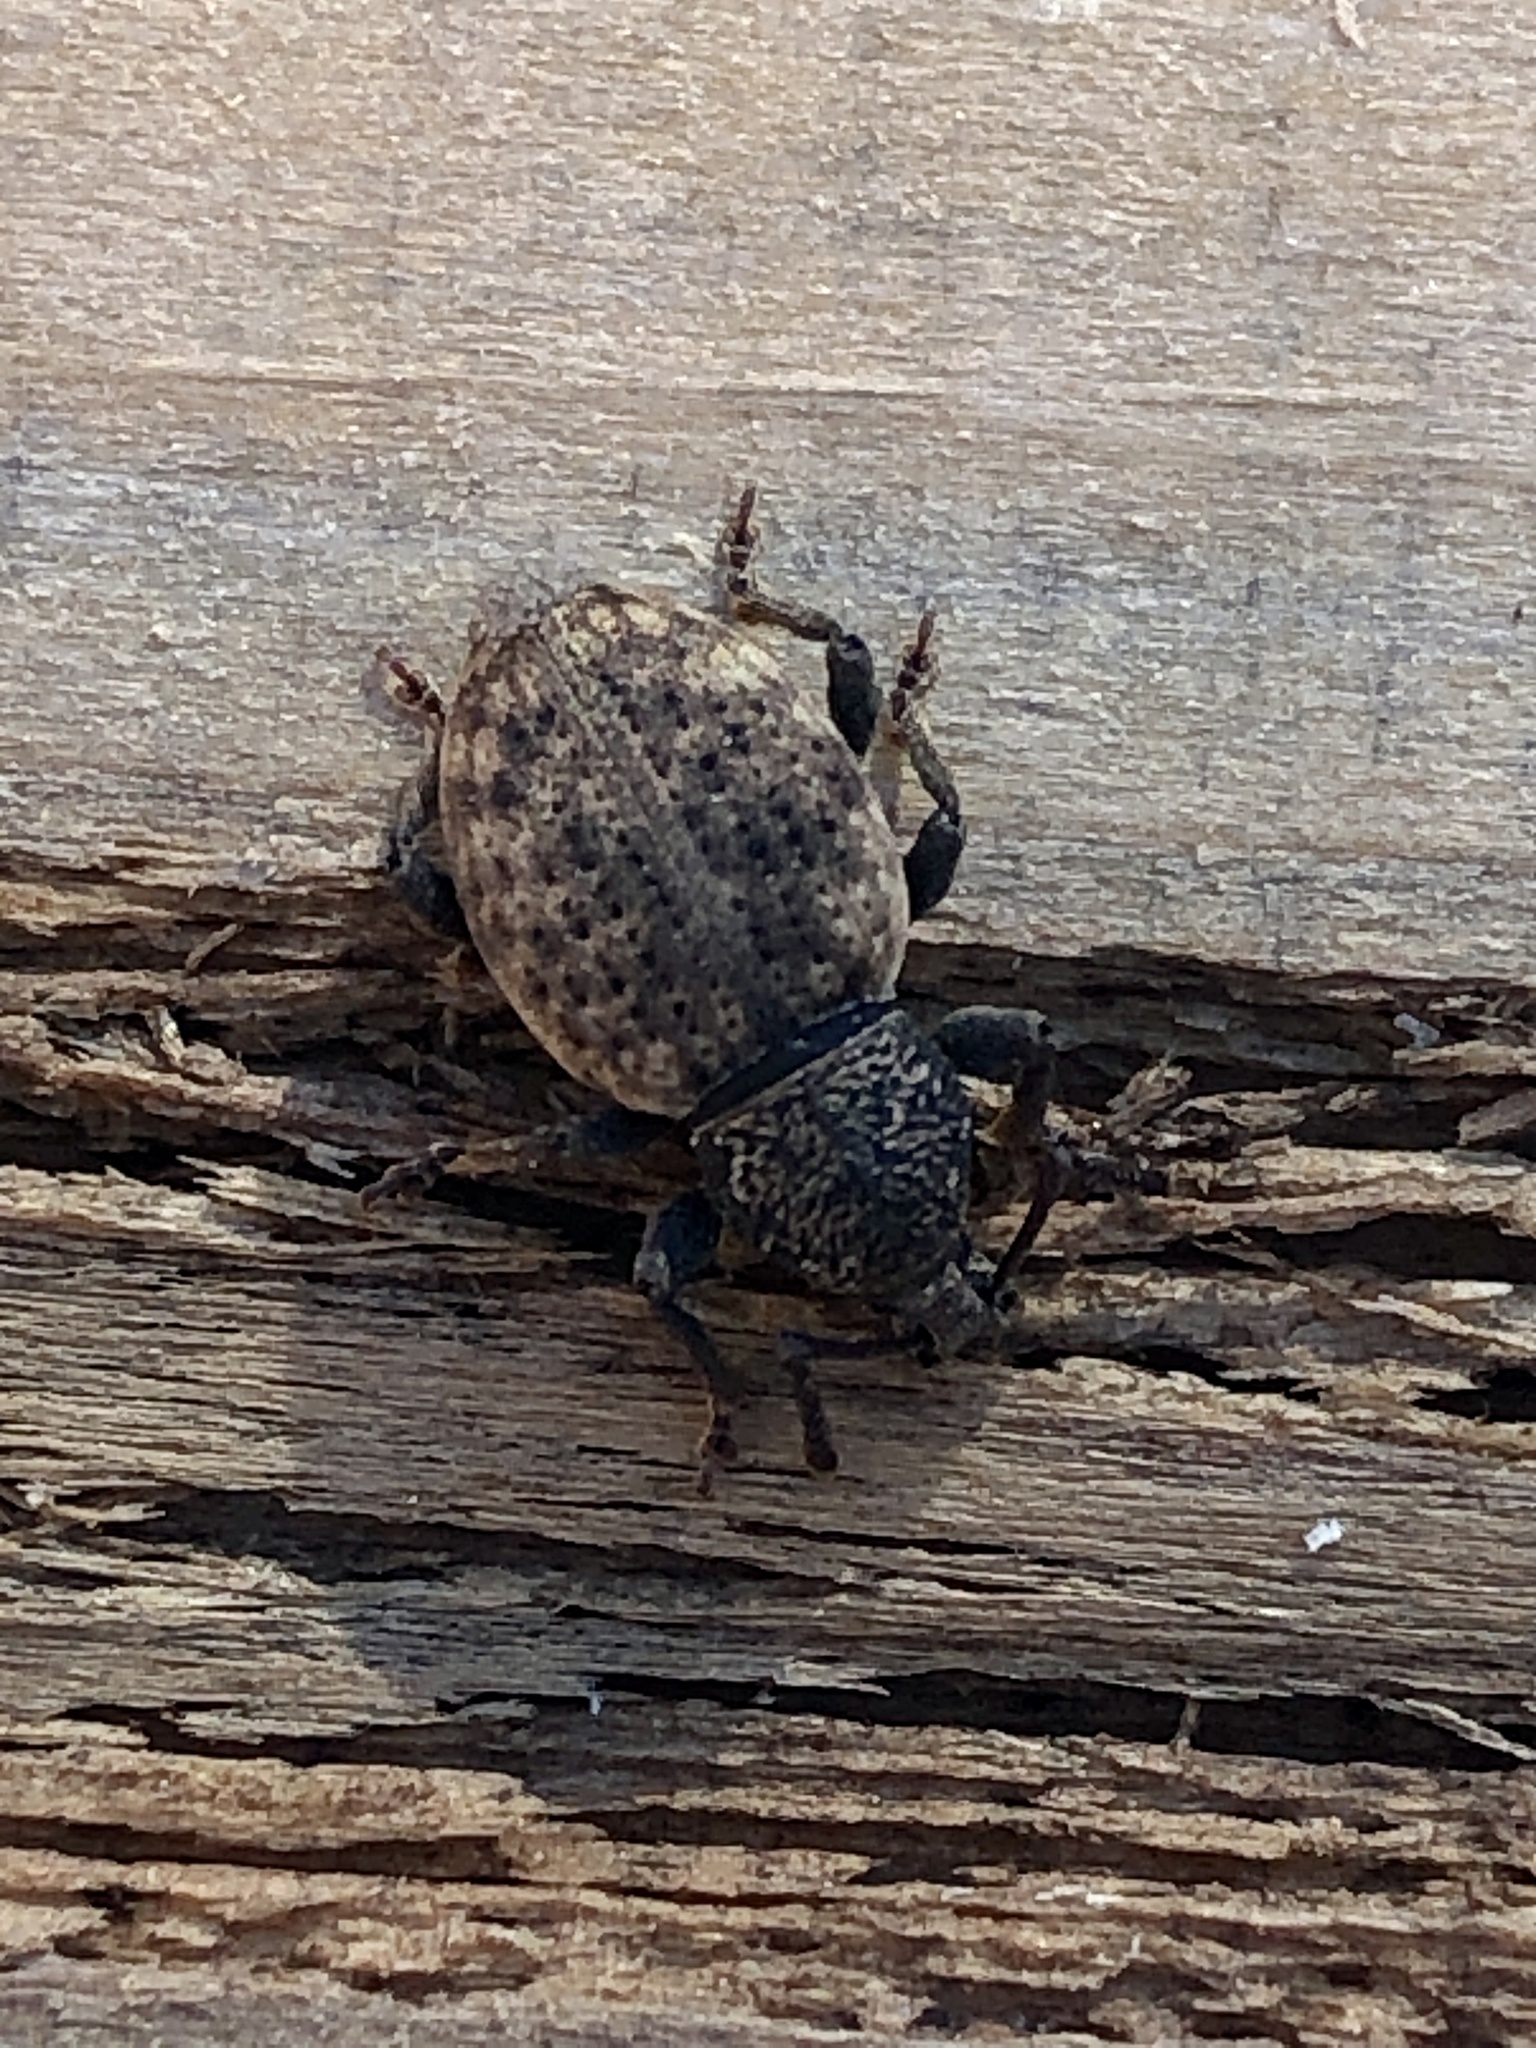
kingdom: Animalia
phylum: Arthropoda
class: Insecta
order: Coleoptera
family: Curculionidae
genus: Otiorhynchus
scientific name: Otiorhynchus raucus
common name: Weevil
